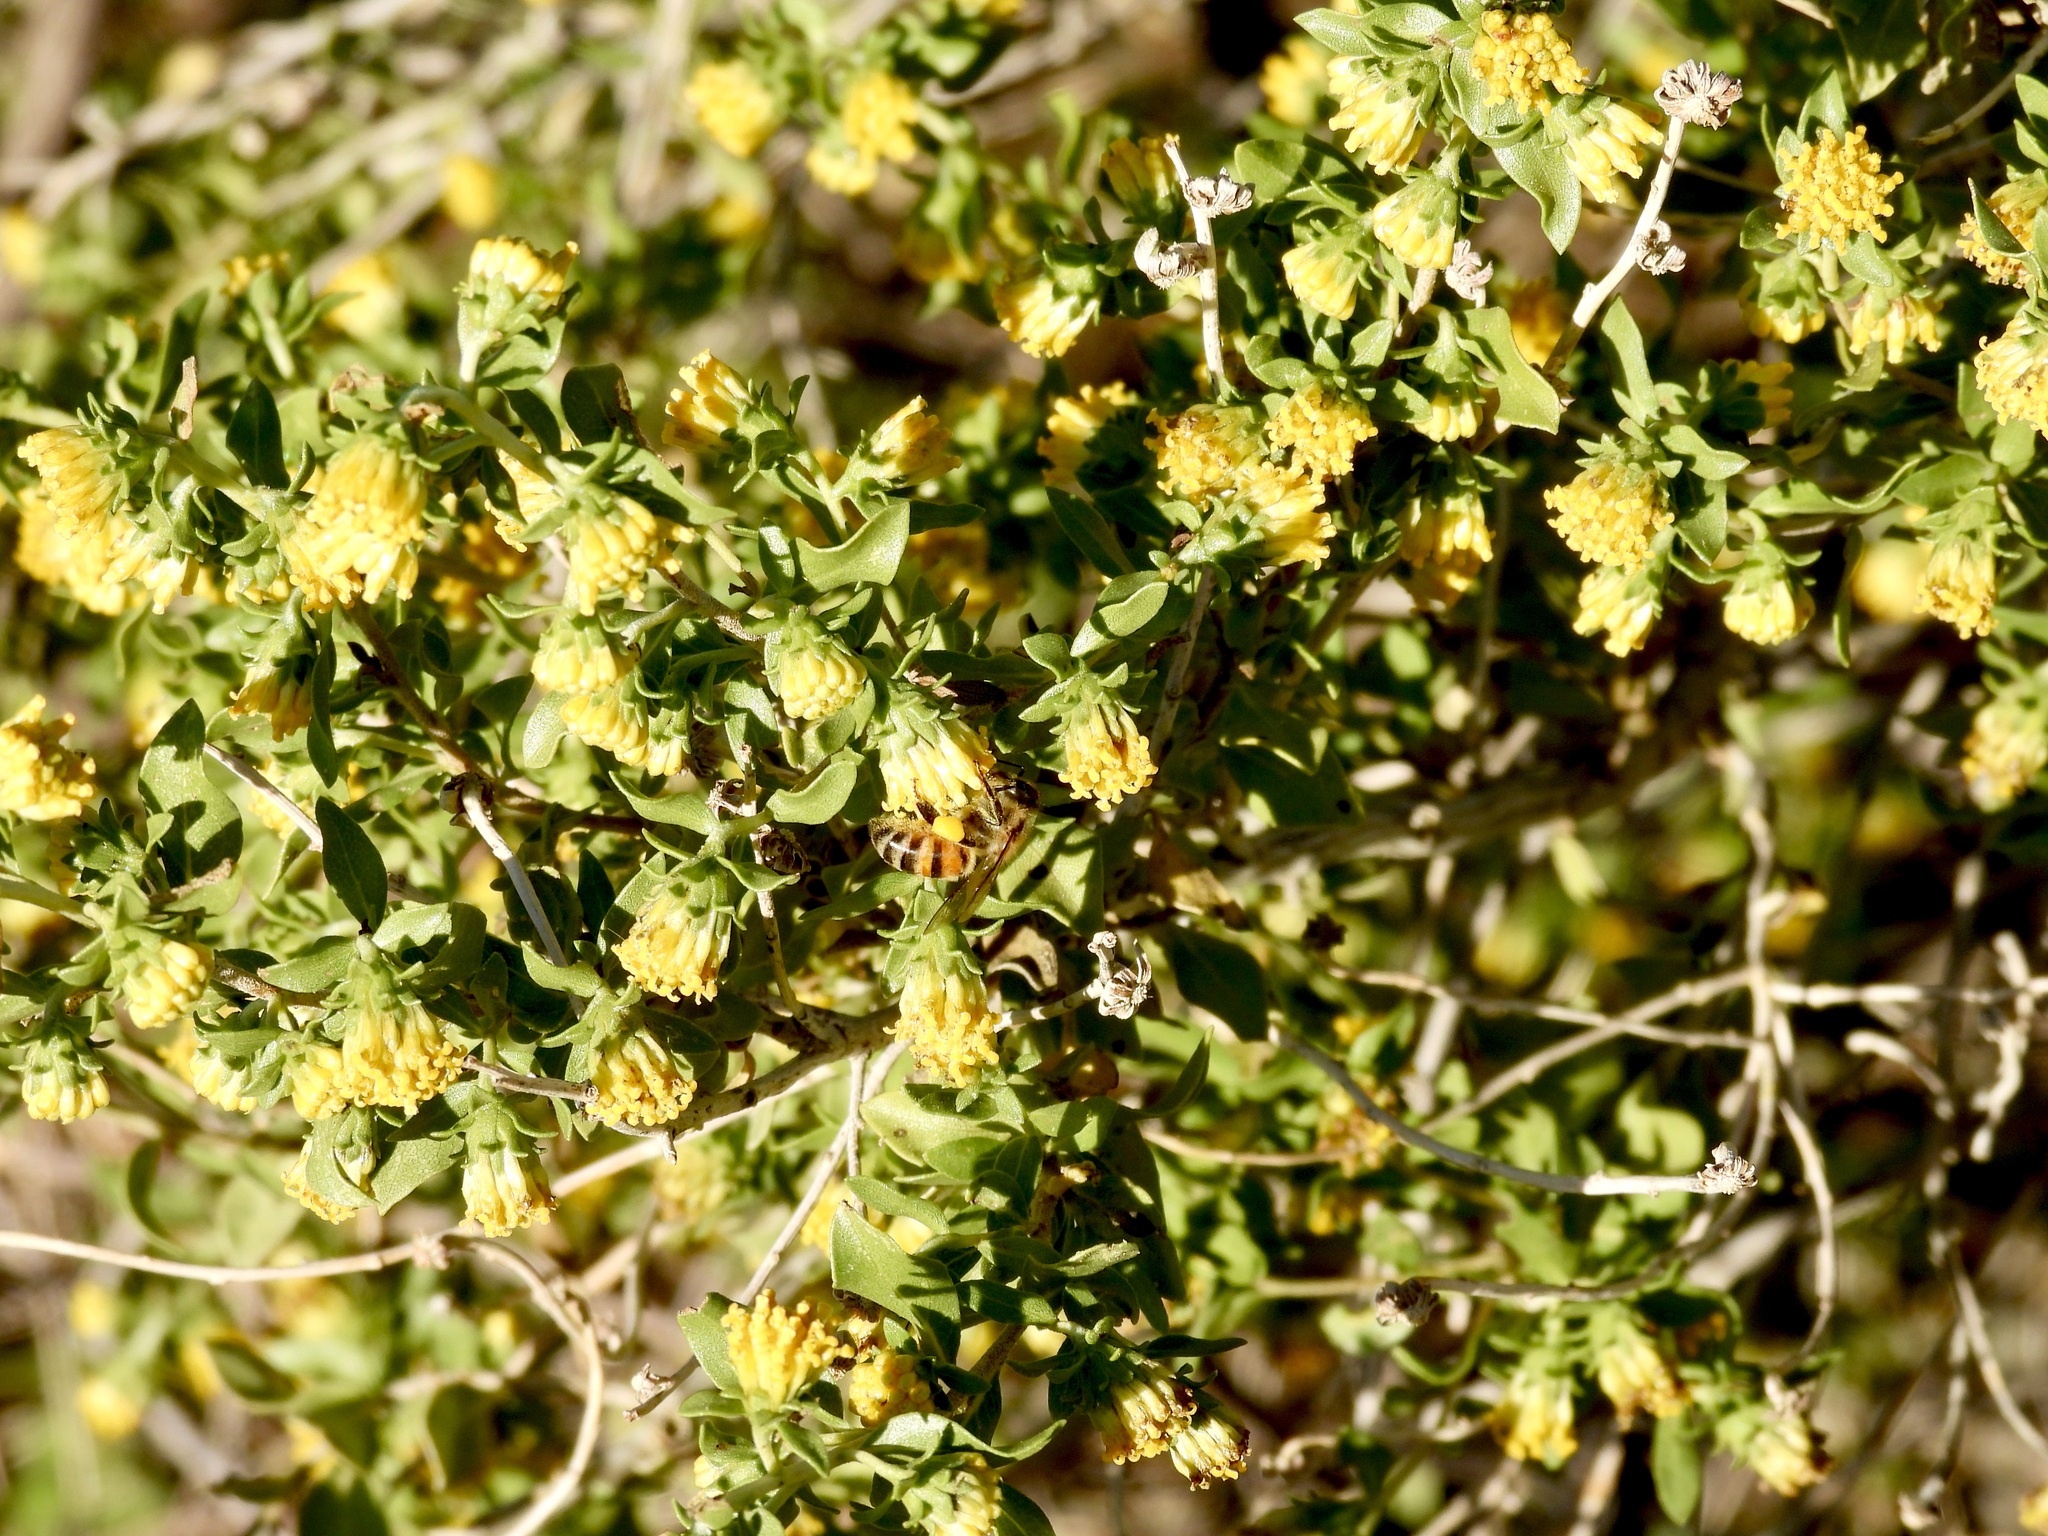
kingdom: Plantae
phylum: Tracheophyta
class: Magnoliopsida
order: Asterales
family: Asteraceae
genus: Flourensia
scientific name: Flourensia cernua
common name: Varnishbush
